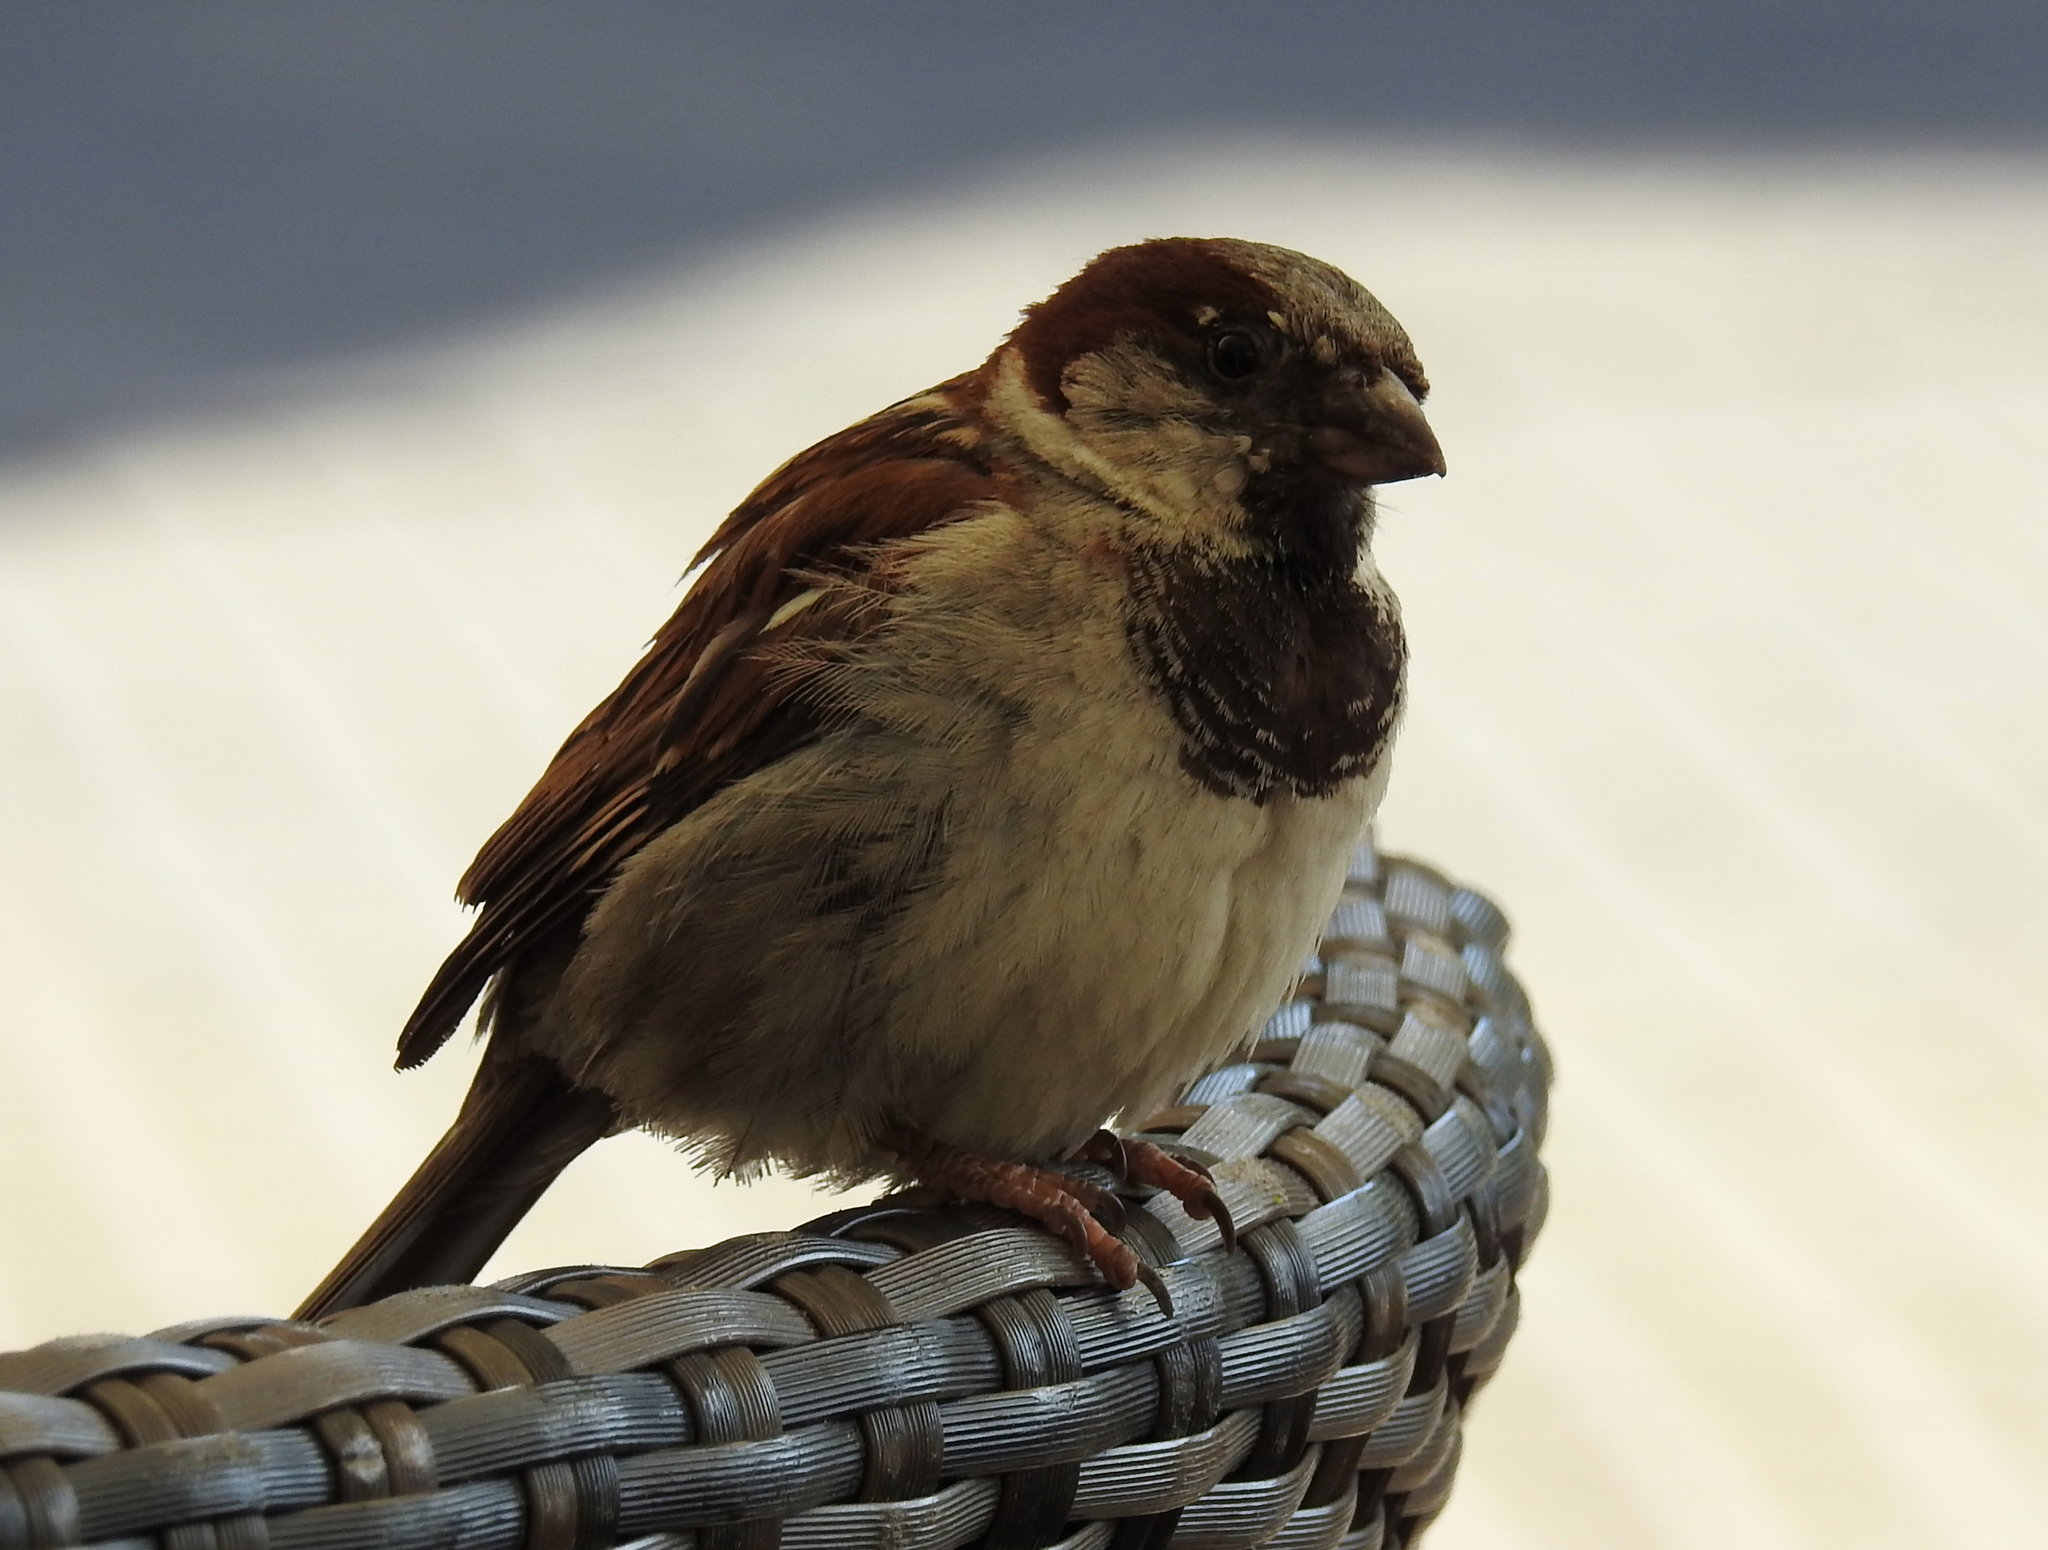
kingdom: Animalia
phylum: Chordata
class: Aves
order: Passeriformes
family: Passeridae
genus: Passer
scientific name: Passer domesticus
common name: House sparrow
